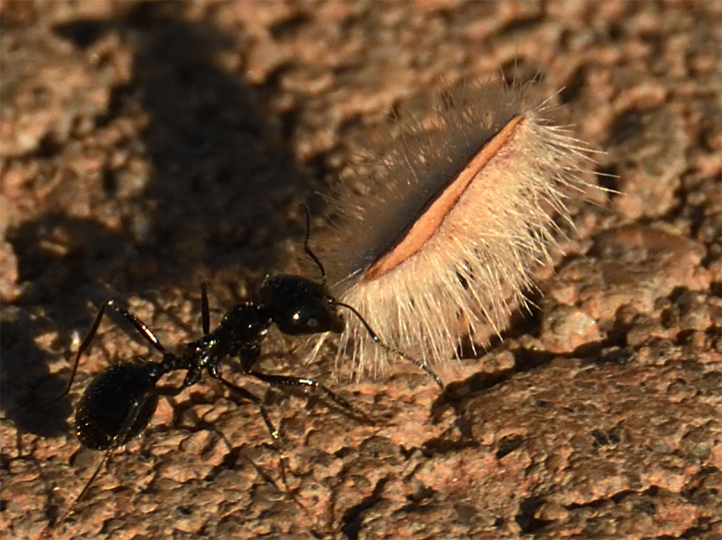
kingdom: Animalia
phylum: Arthropoda
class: Insecta
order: Hymenoptera
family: Formicidae
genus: Messor
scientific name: Messor pergandei
